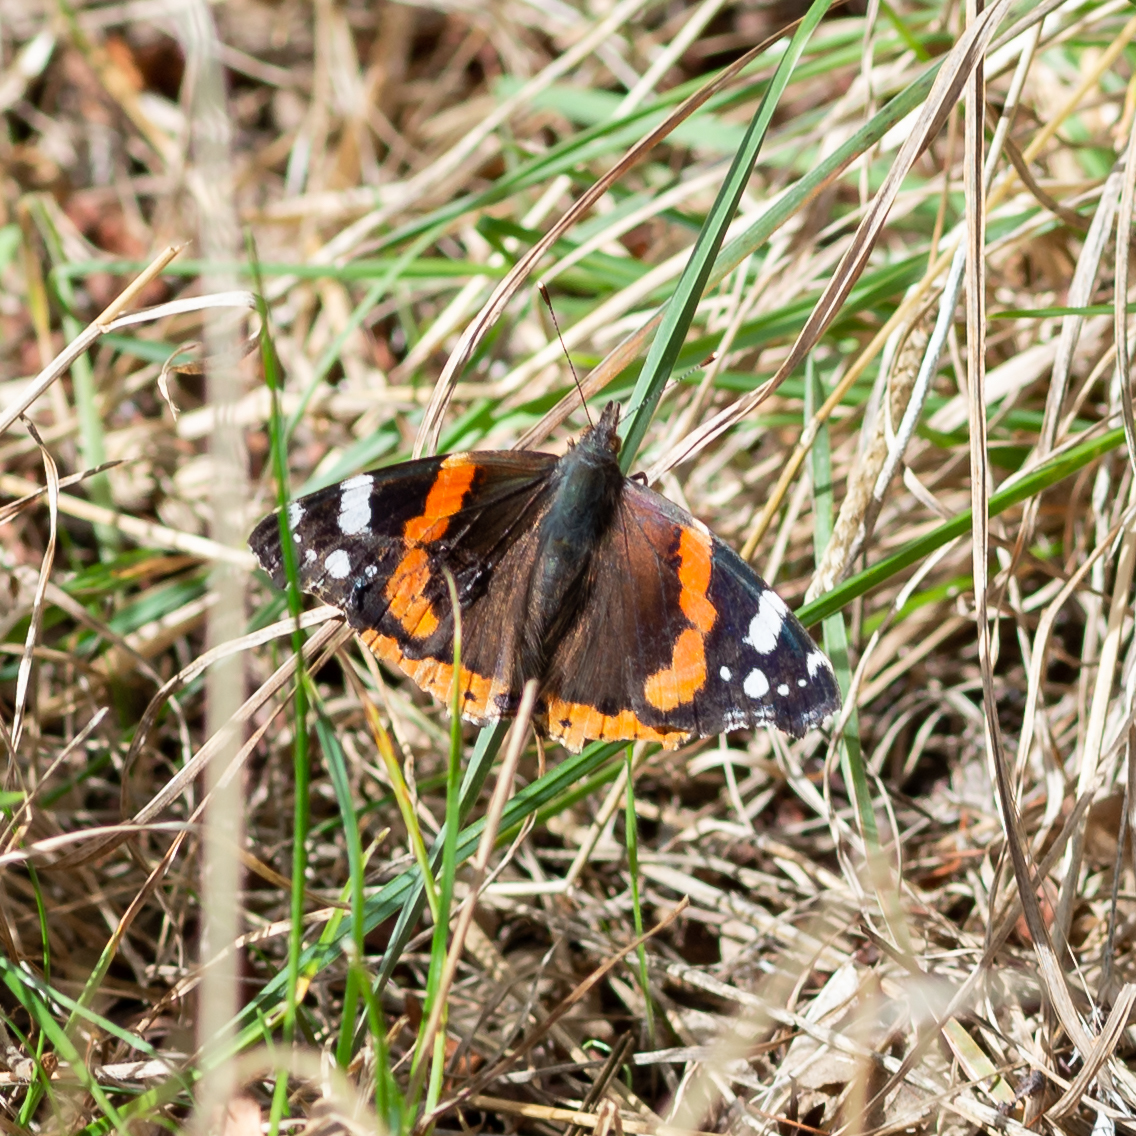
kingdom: Animalia
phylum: Arthropoda
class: Insecta
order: Lepidoptera
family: Nymphalidae
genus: Vanessa
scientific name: Vanessa atalanta
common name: Red admiral
